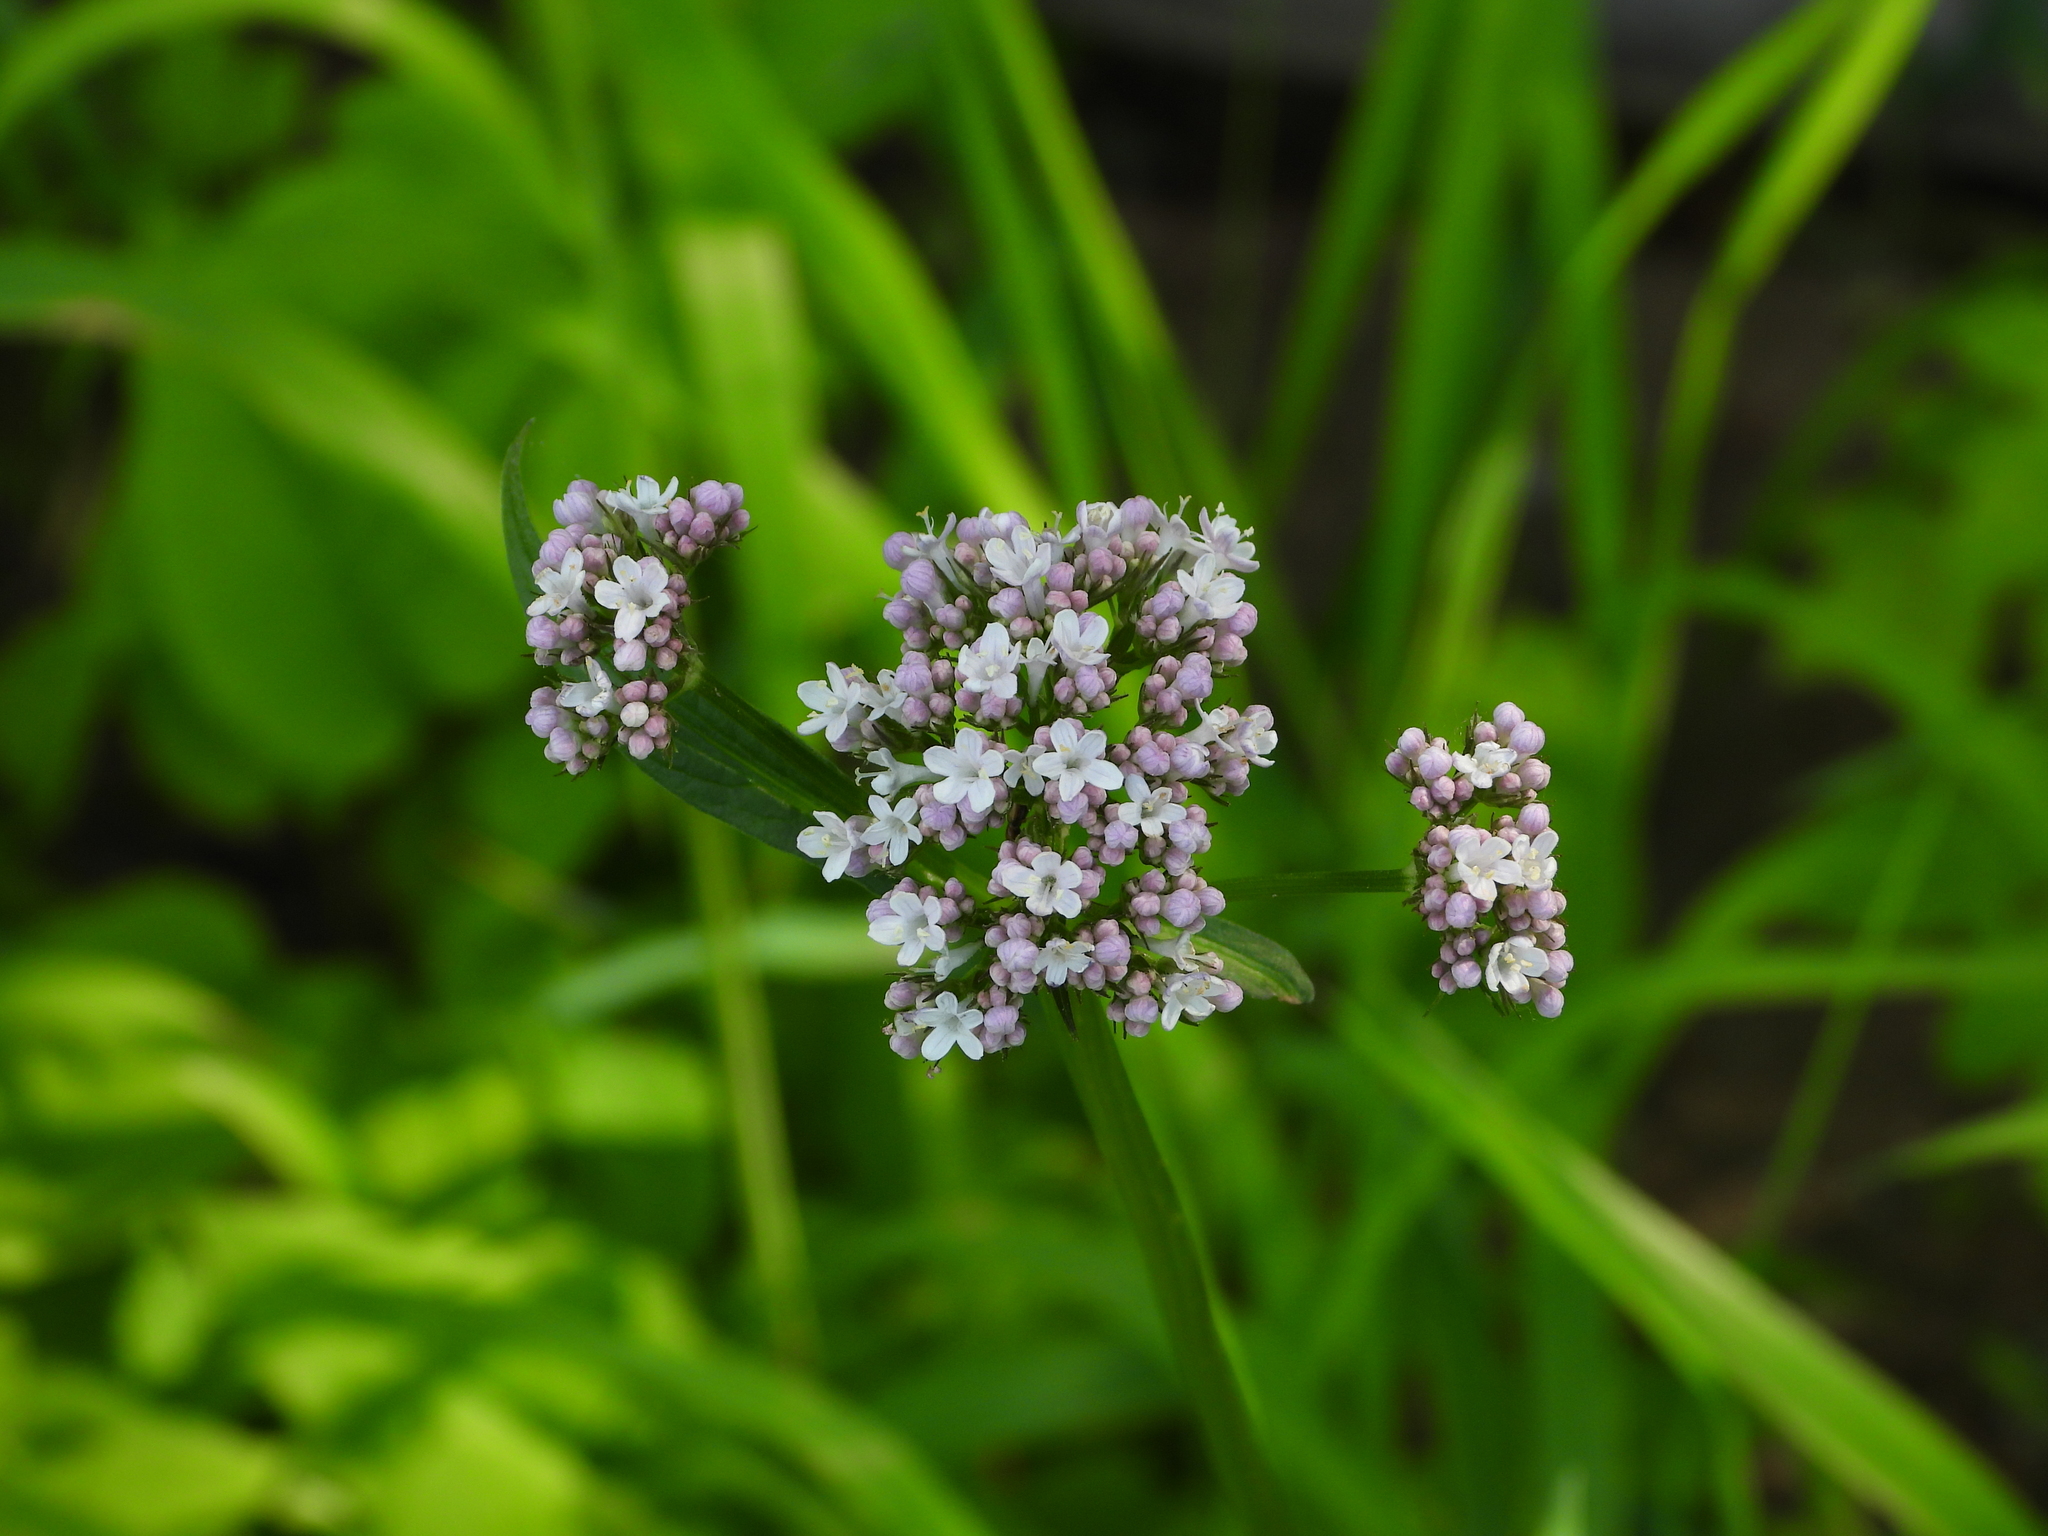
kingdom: Plantae
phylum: Tracheophyta
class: Magnoliopsida
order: Dipsacales
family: Caprifoliaceae
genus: Valeriana
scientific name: Valeriana officinalis
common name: Common valerian
